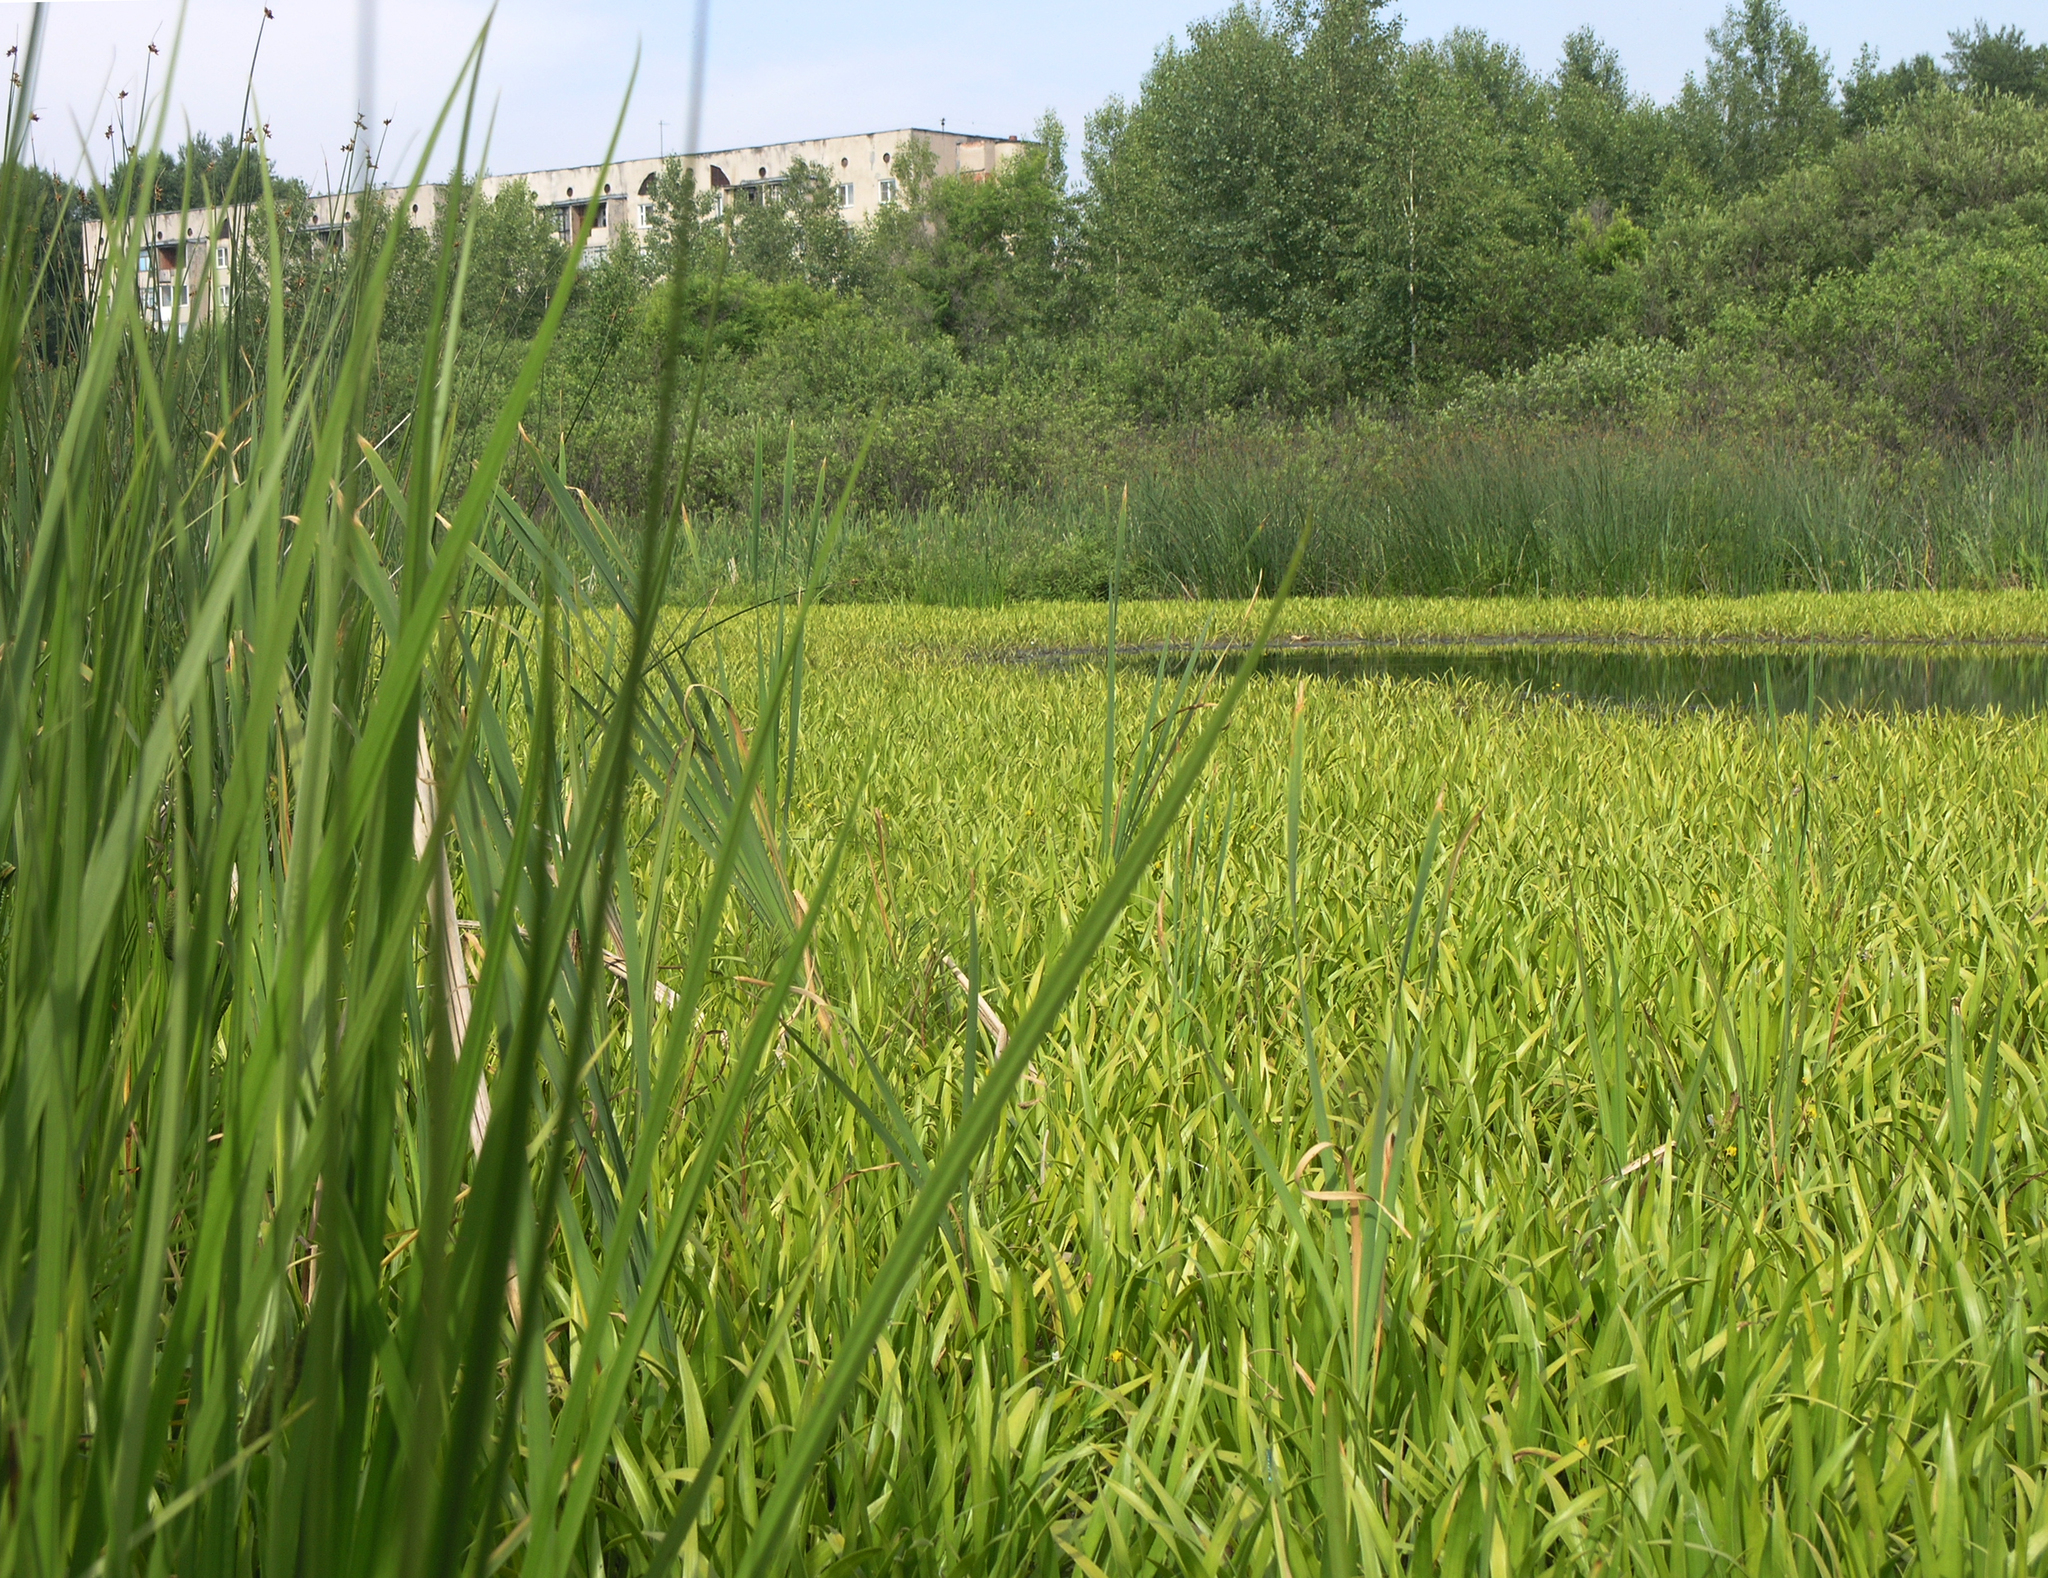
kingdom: Plantae
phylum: Tracheophyta
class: Liliopsida
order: Alismatales
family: Hydrocharitaceae
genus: Stratiotes
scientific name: Stratiotes aloides
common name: Water-soldier
